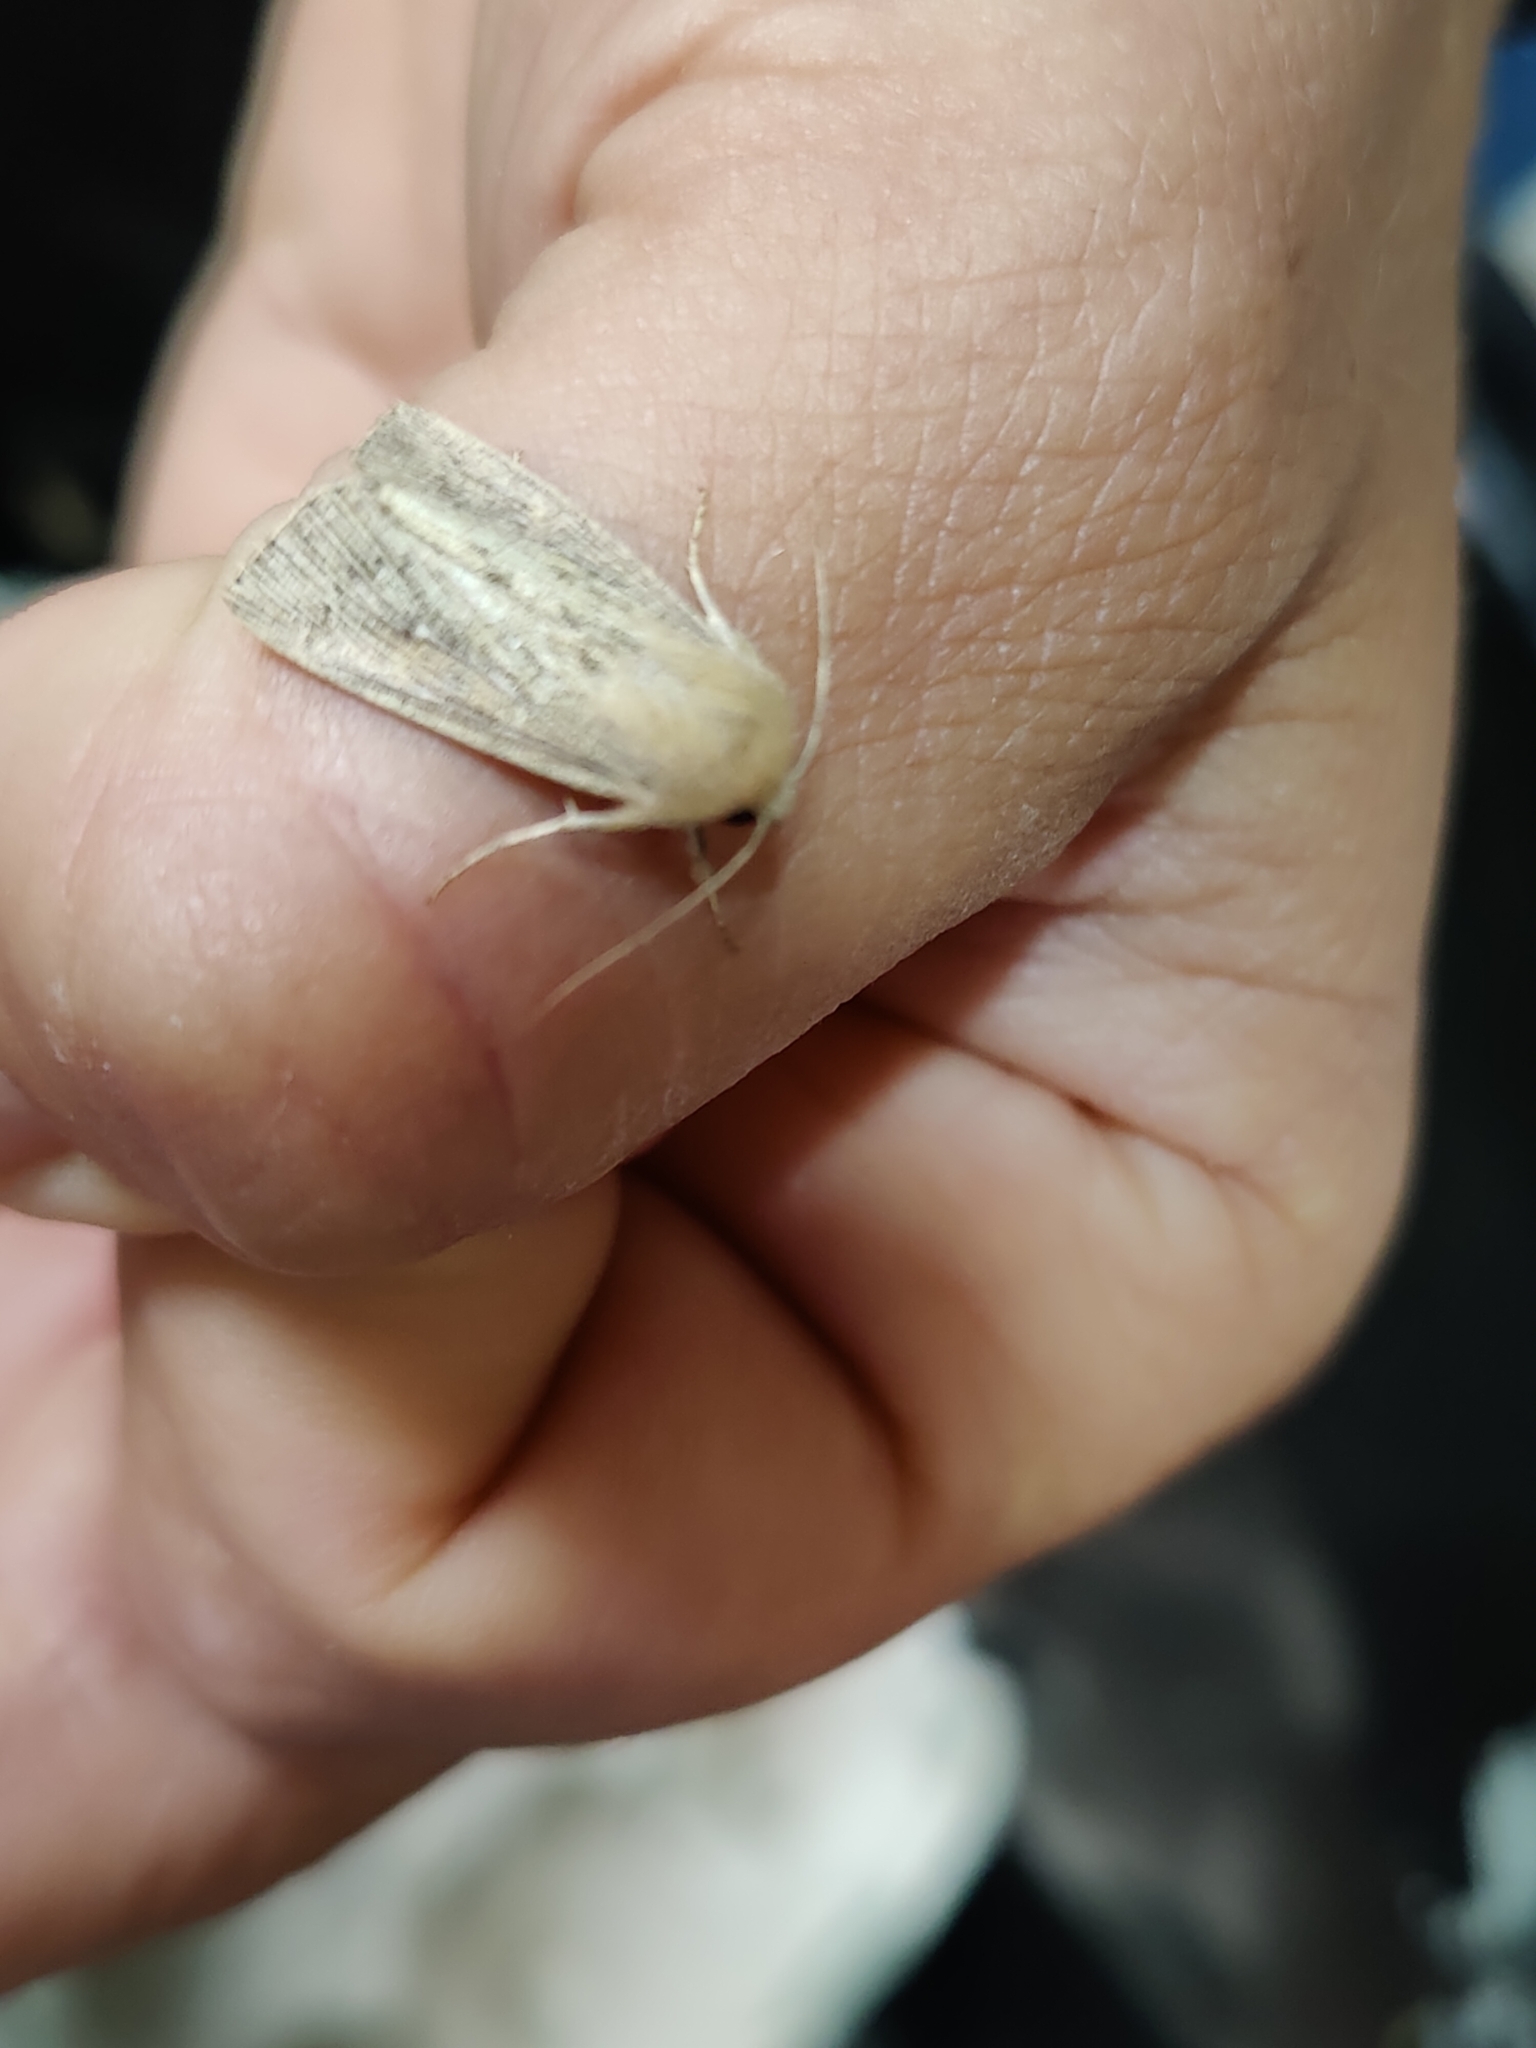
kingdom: Animalia
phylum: Arthropoda
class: Insecta
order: Lepidoptera
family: Noctuidae
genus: Leucania
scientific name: Leucania obsoleta
